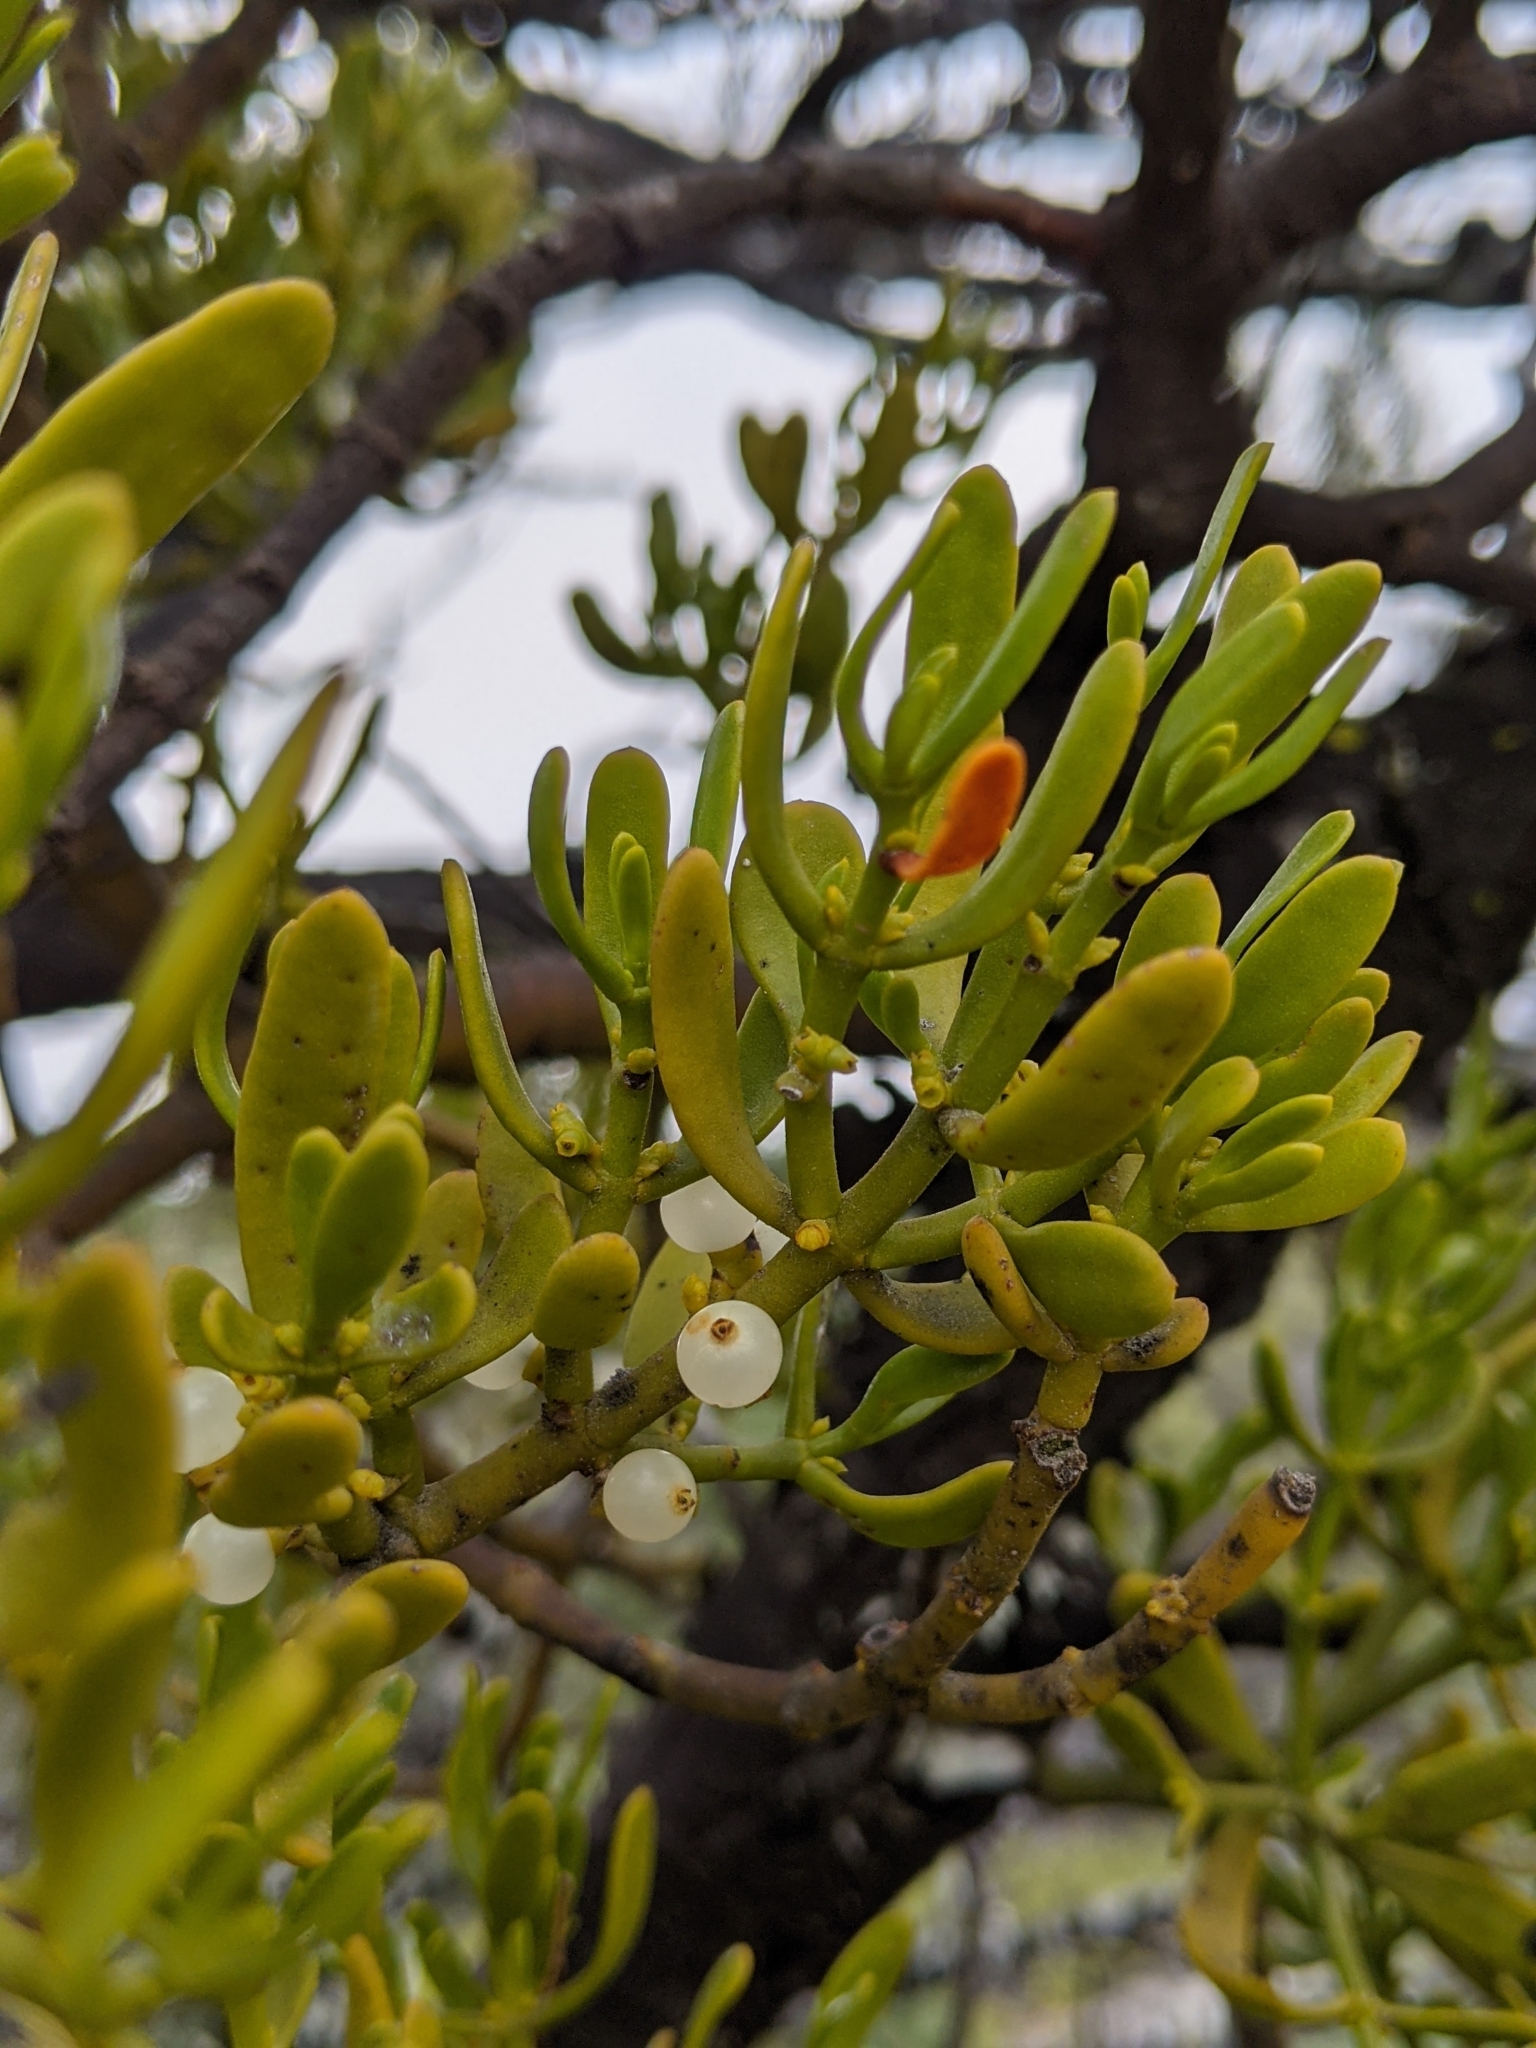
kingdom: Plantae
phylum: Tracheophyta
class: Magnoliopsida
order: Santalales
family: Viscaceae
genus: Phoradendron
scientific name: Phoradendron densum
